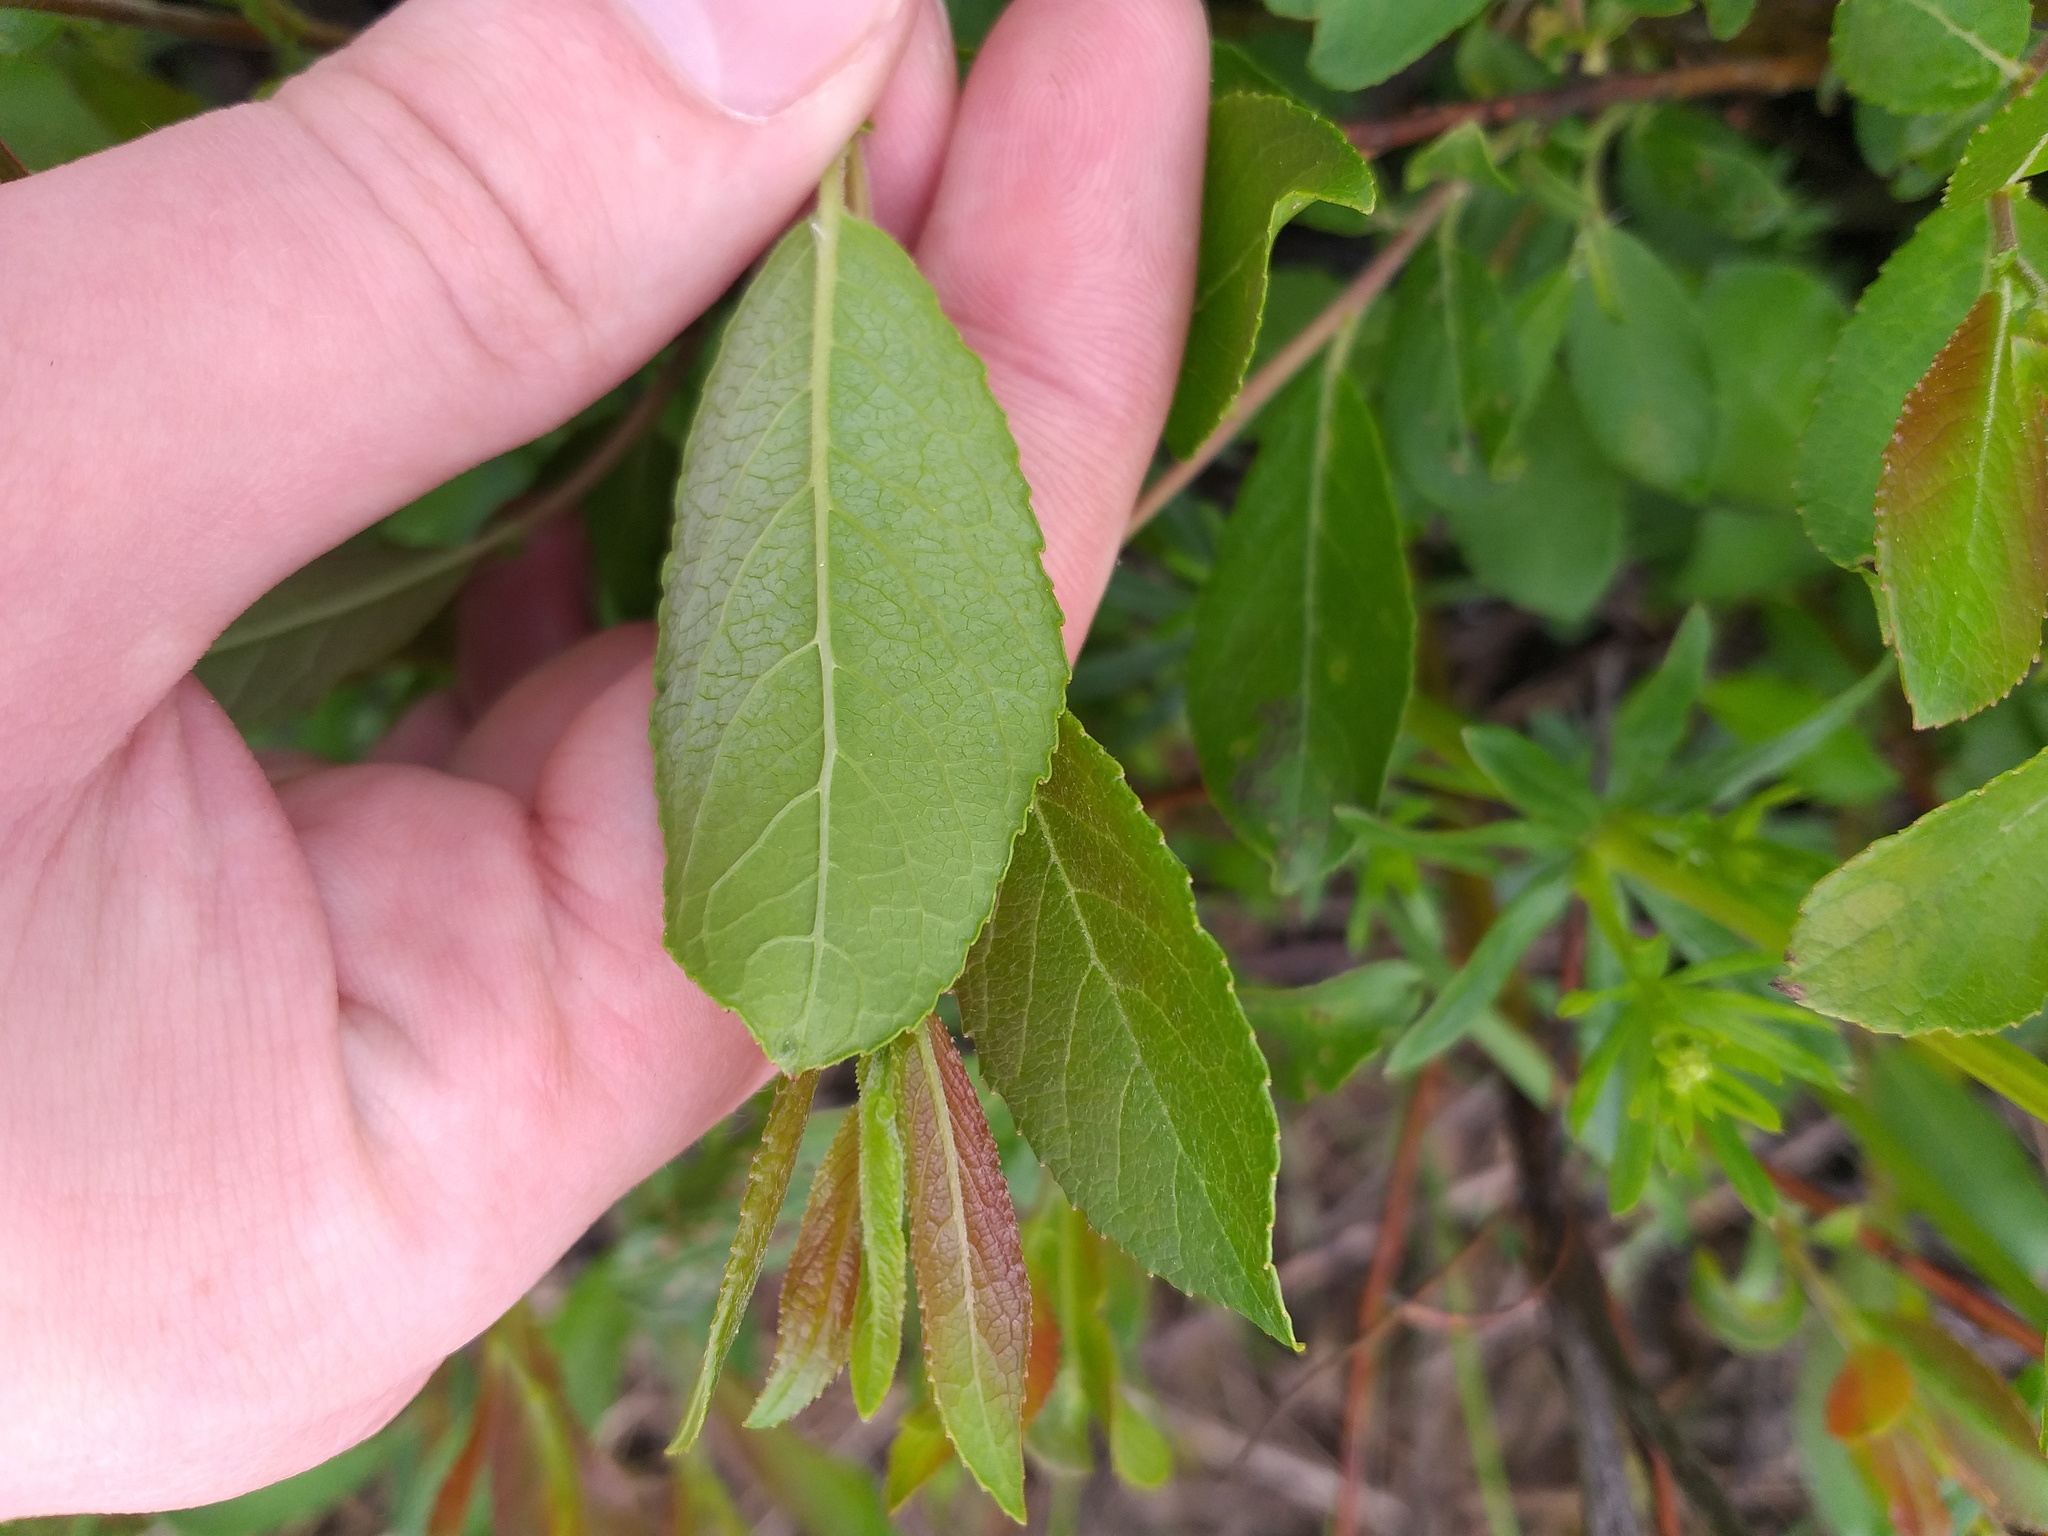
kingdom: Plantae
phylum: Tracheophyta
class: Magnoliopsida
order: Malpighiales
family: Salicaceae
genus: Salix
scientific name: Salix myrsinifolia
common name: Dark-leaved willow
